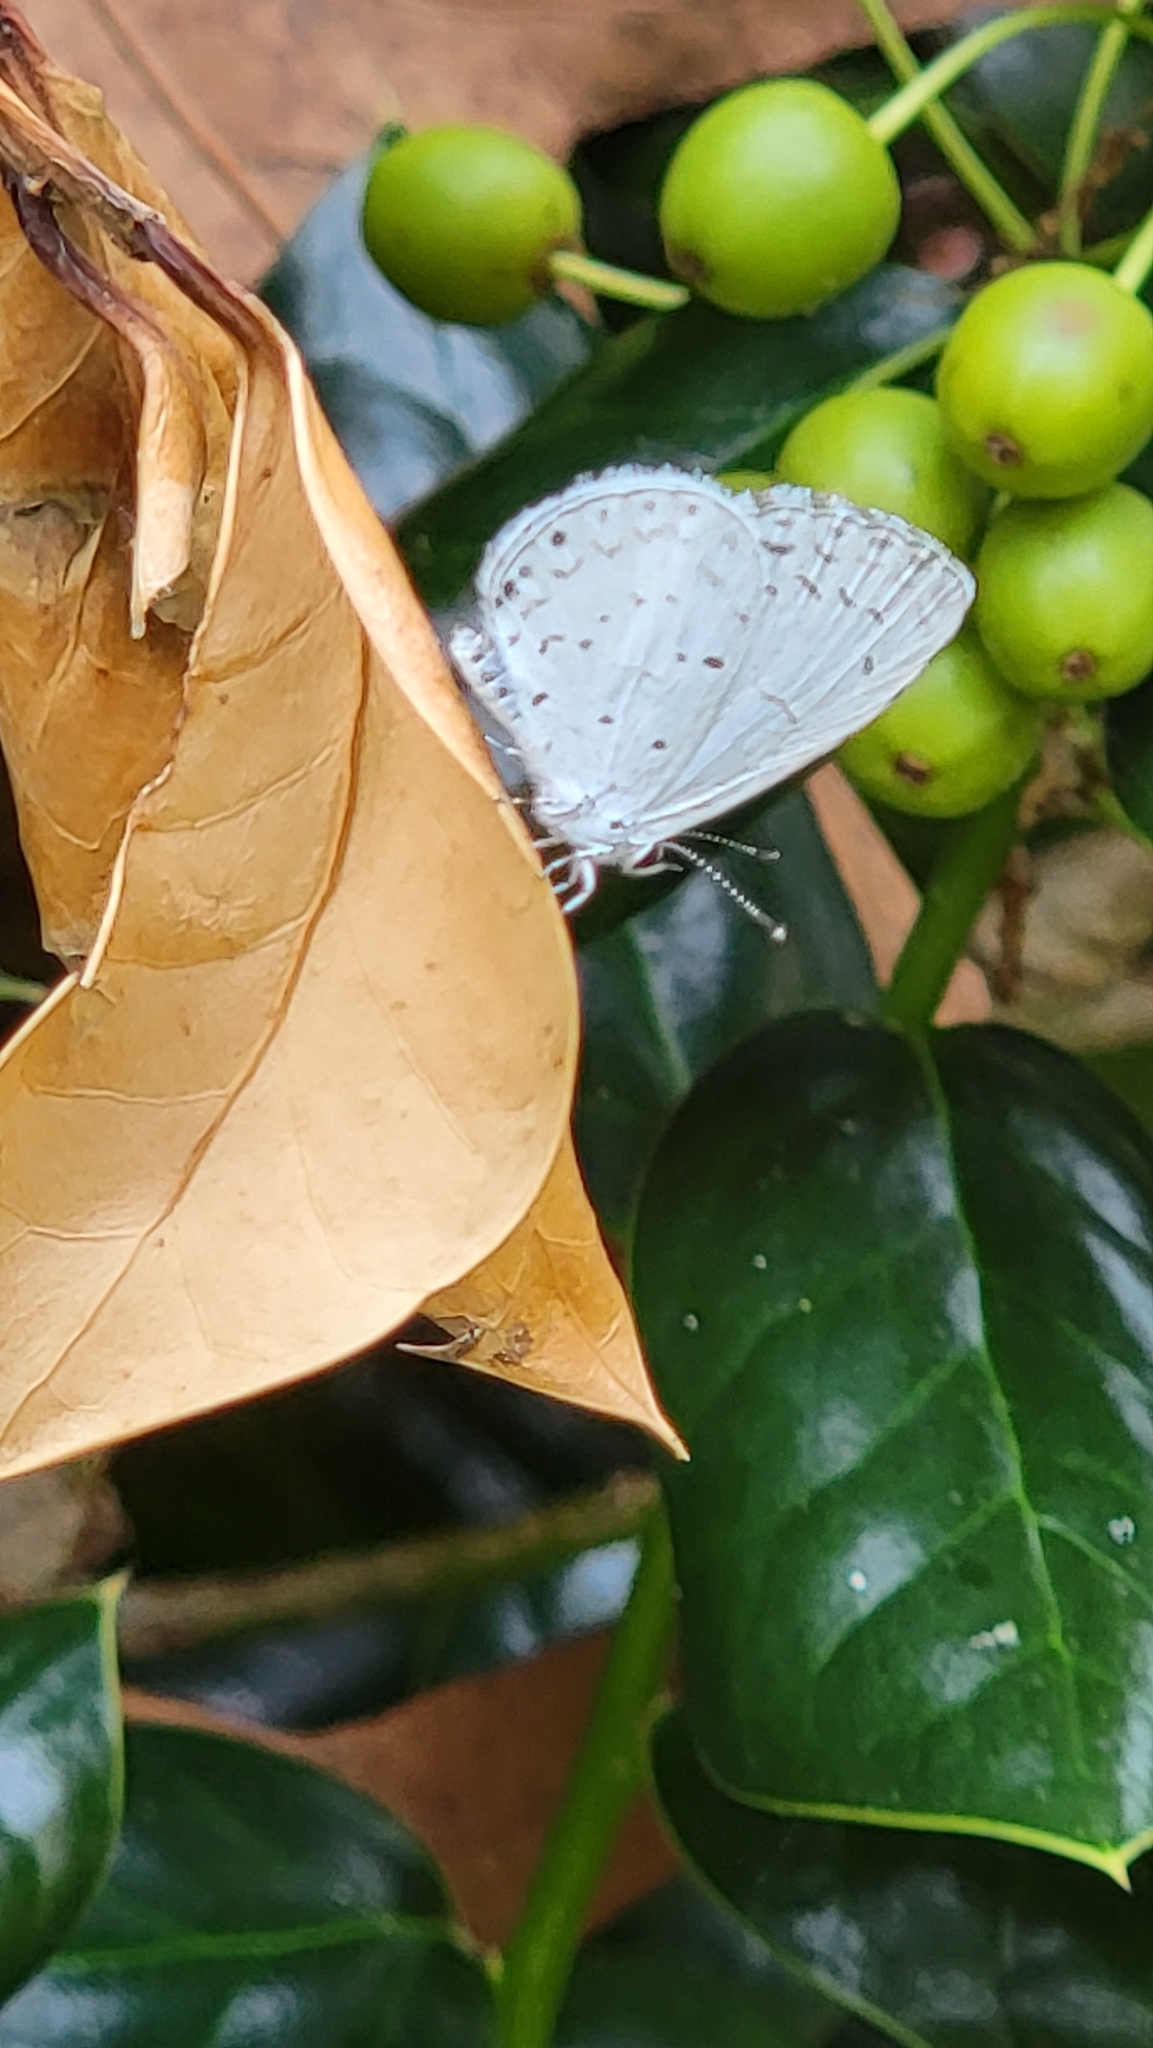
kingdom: Animalia
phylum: Arthropoda
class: Insecta
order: Lepidoptera
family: Lycaenidae
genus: Cyaniris
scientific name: Cyaniris neglecta
